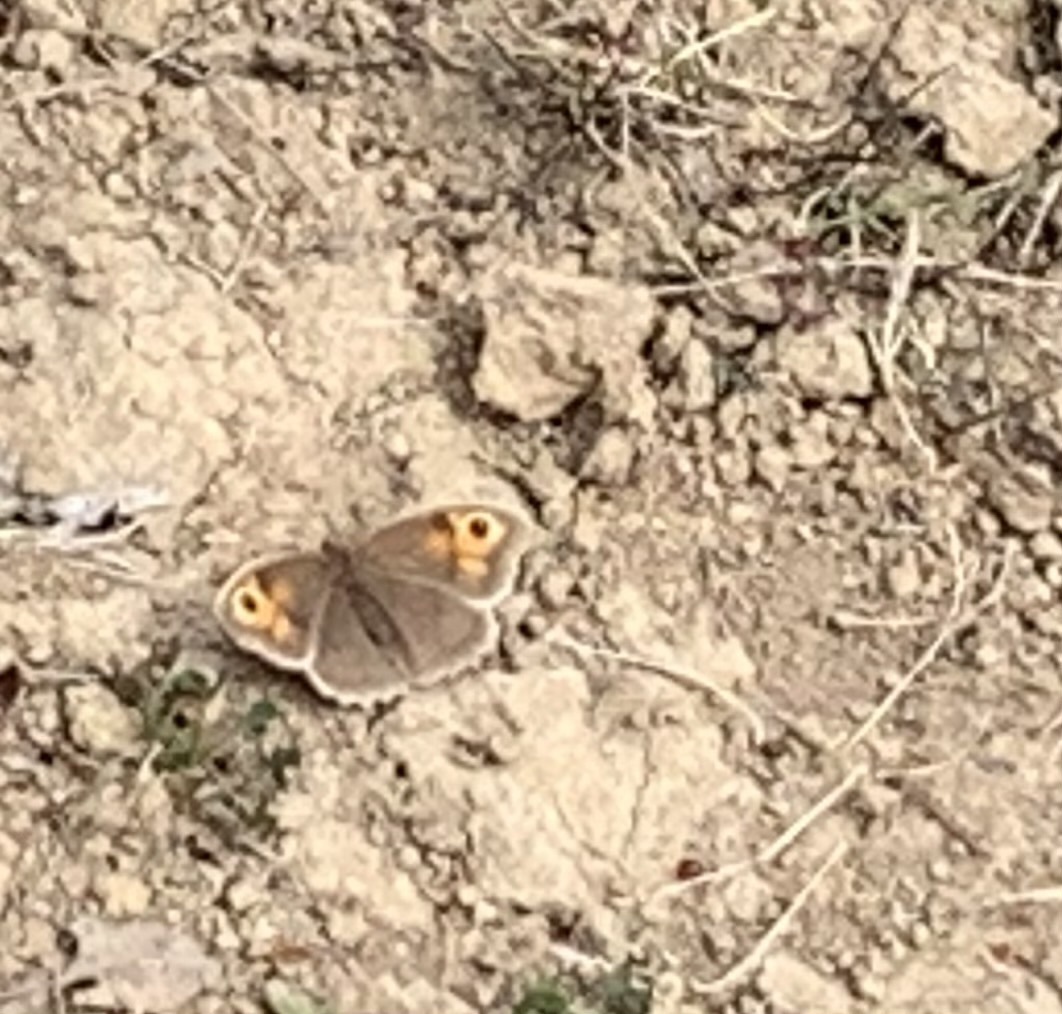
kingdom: Animalia
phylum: Arthropoda
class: Insecta
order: Lepidoptera
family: Nymphalidae
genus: Maniola
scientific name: Maniola jurtina
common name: Meadow brown
